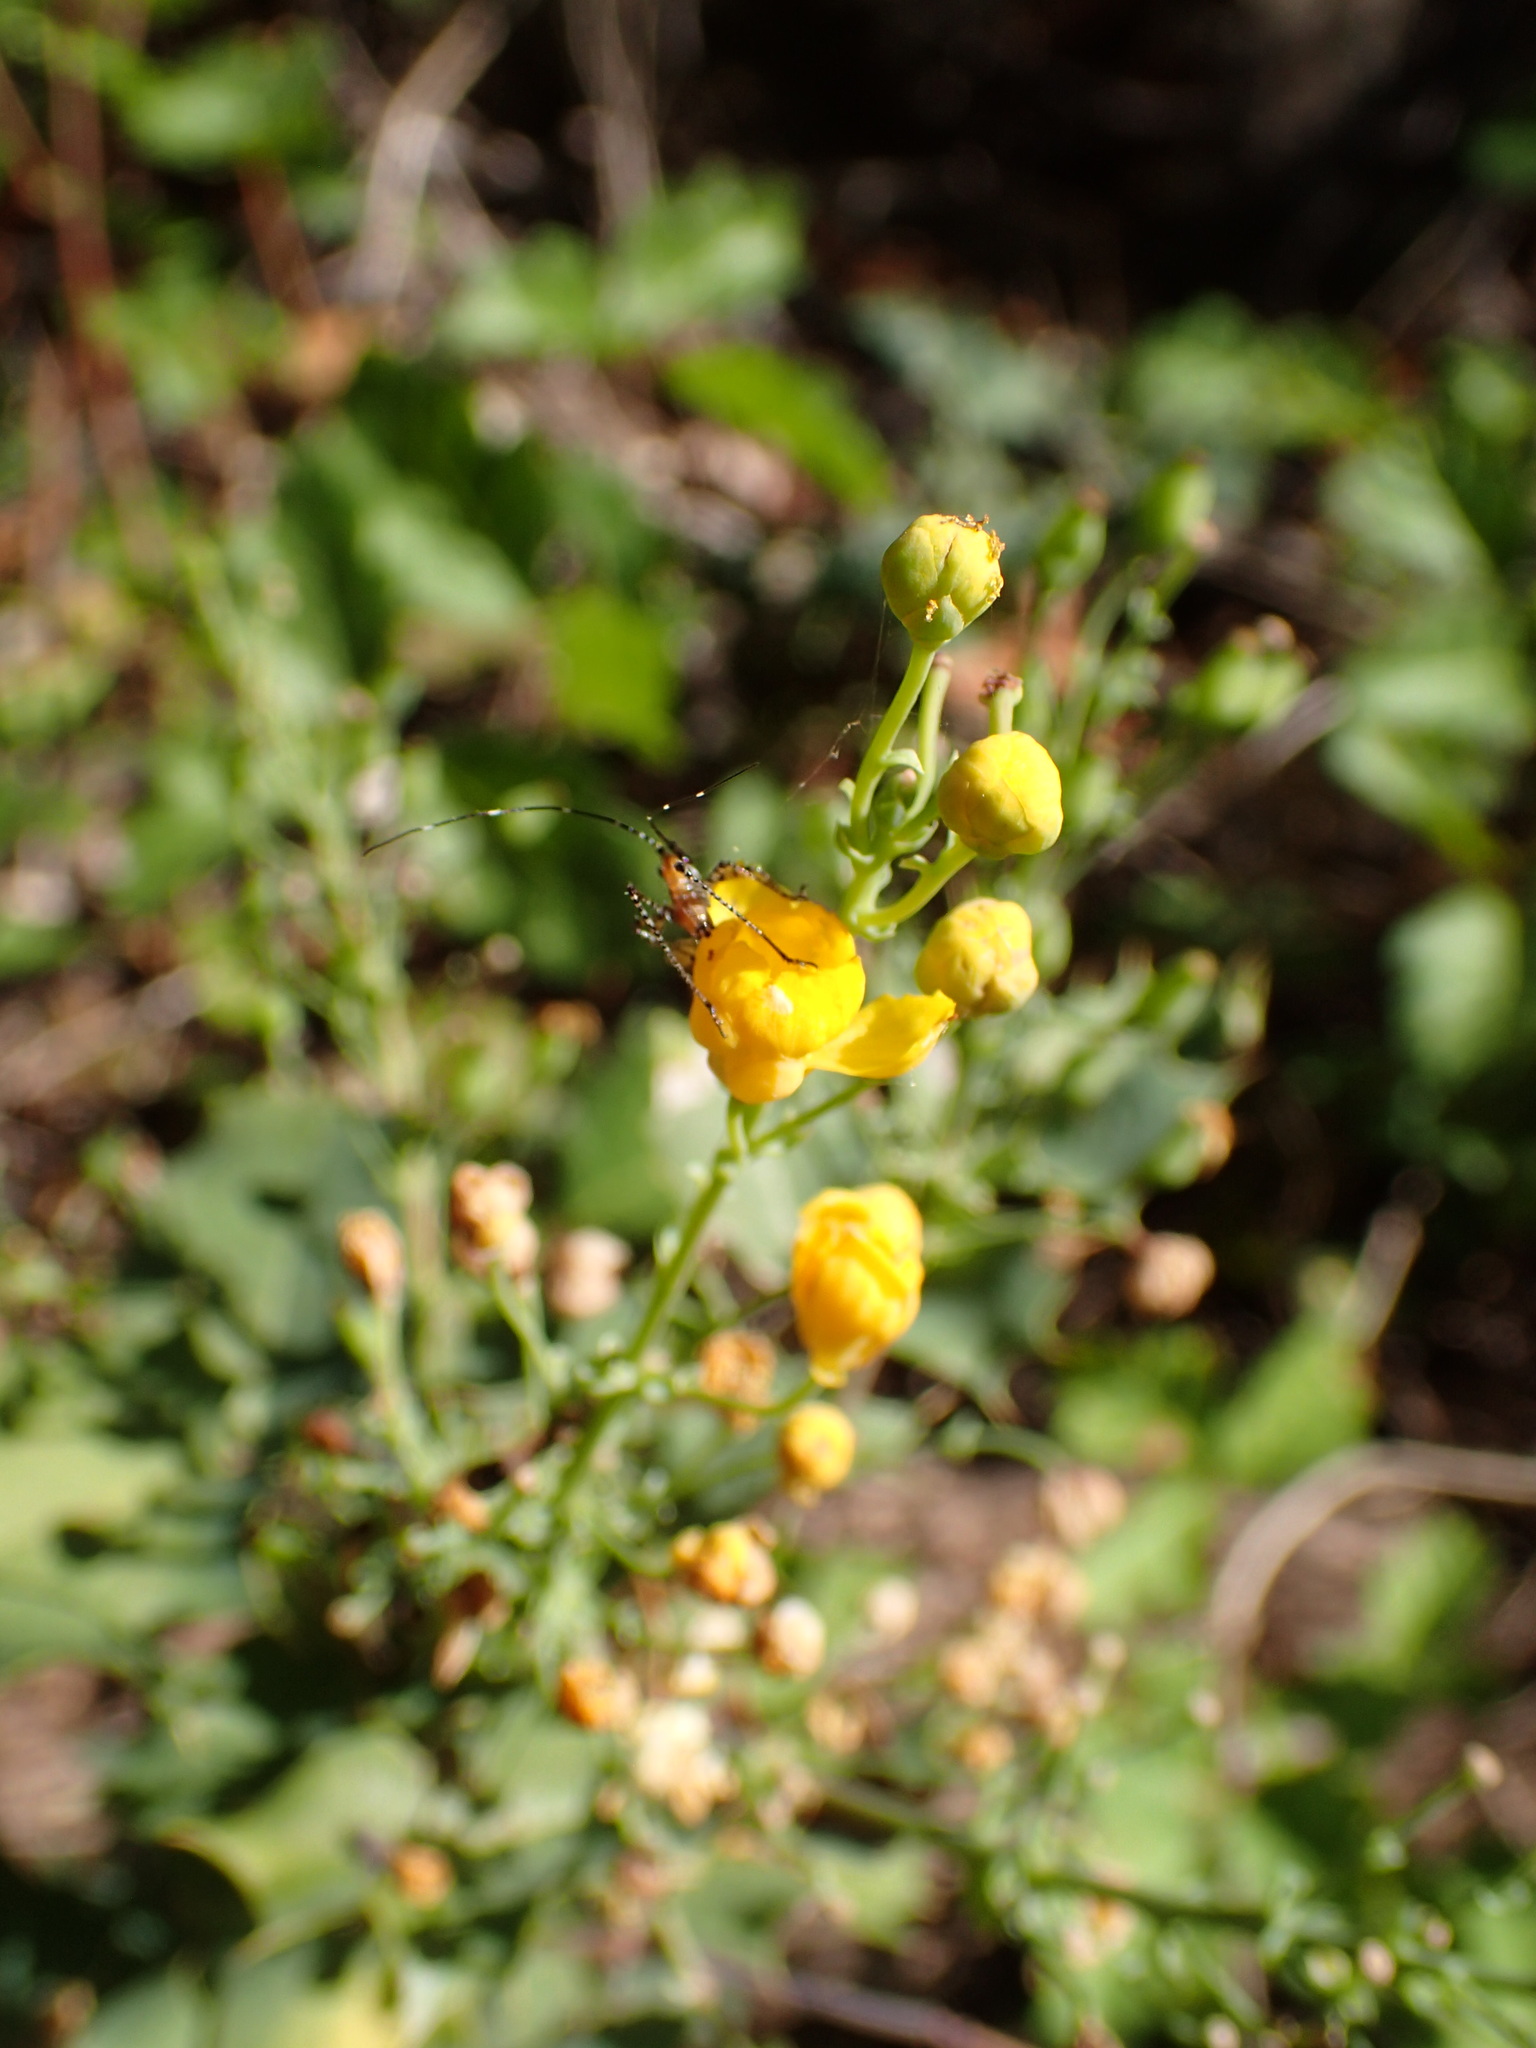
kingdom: Plantae
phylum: Tracheophyta
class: Magnoliopsida
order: Ranunculales
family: Berberidaceae
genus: Mahonia
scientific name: Mahonia dictyota
